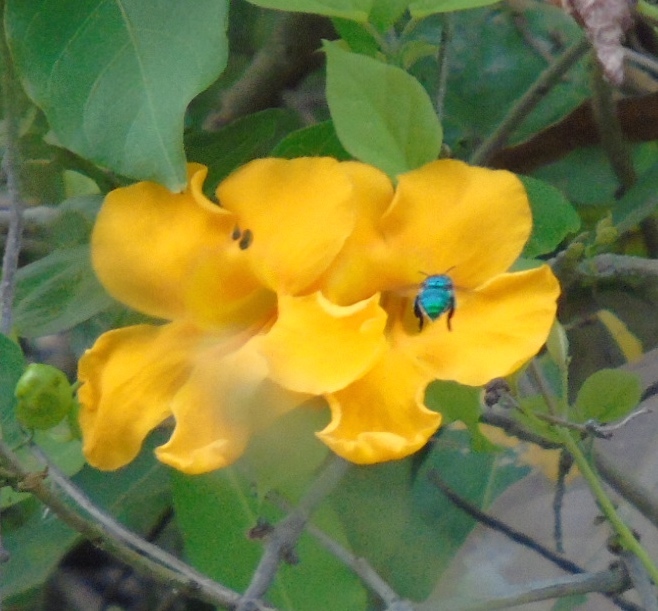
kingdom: Animalia
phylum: Arthropoda
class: Insecta
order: Hymenoptera
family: Apidae
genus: Euglossa
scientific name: Euglossa
